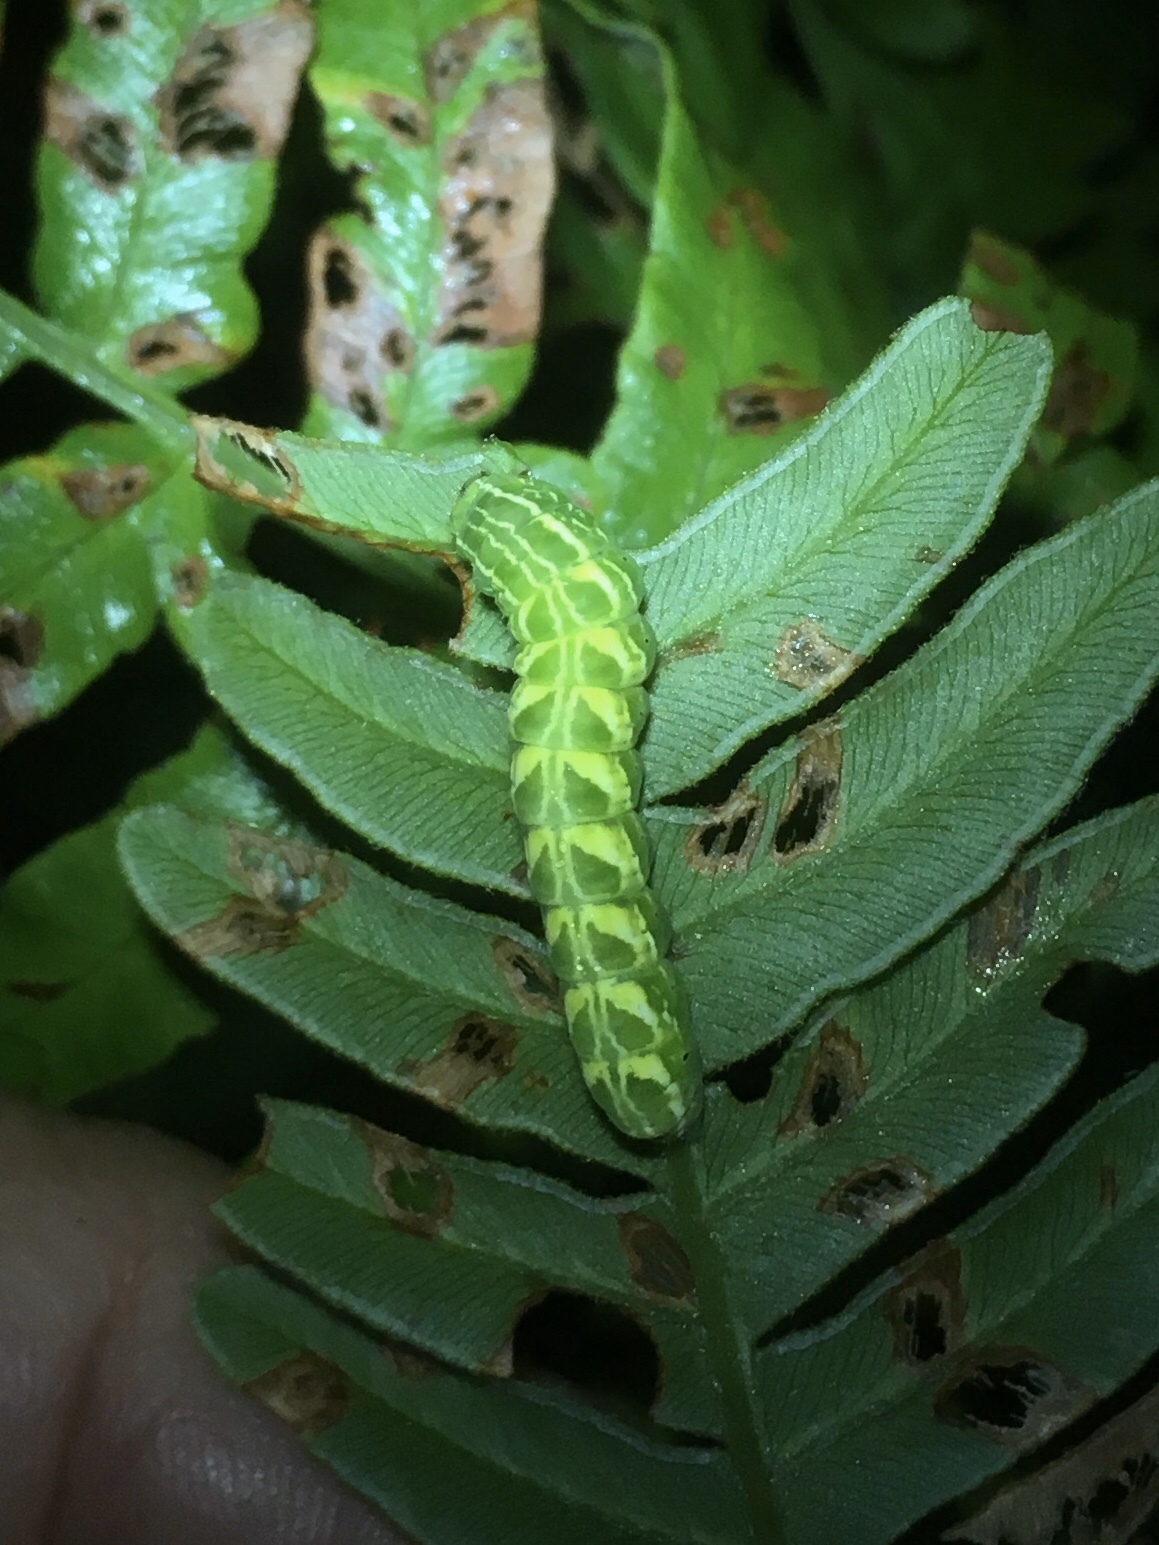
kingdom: Animalia
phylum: Arthropoda
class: Insecta
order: Lepidoptera
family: Noctuidae
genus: Callopistria
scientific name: Callopistria cordata
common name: Silver-spotted fern moth
